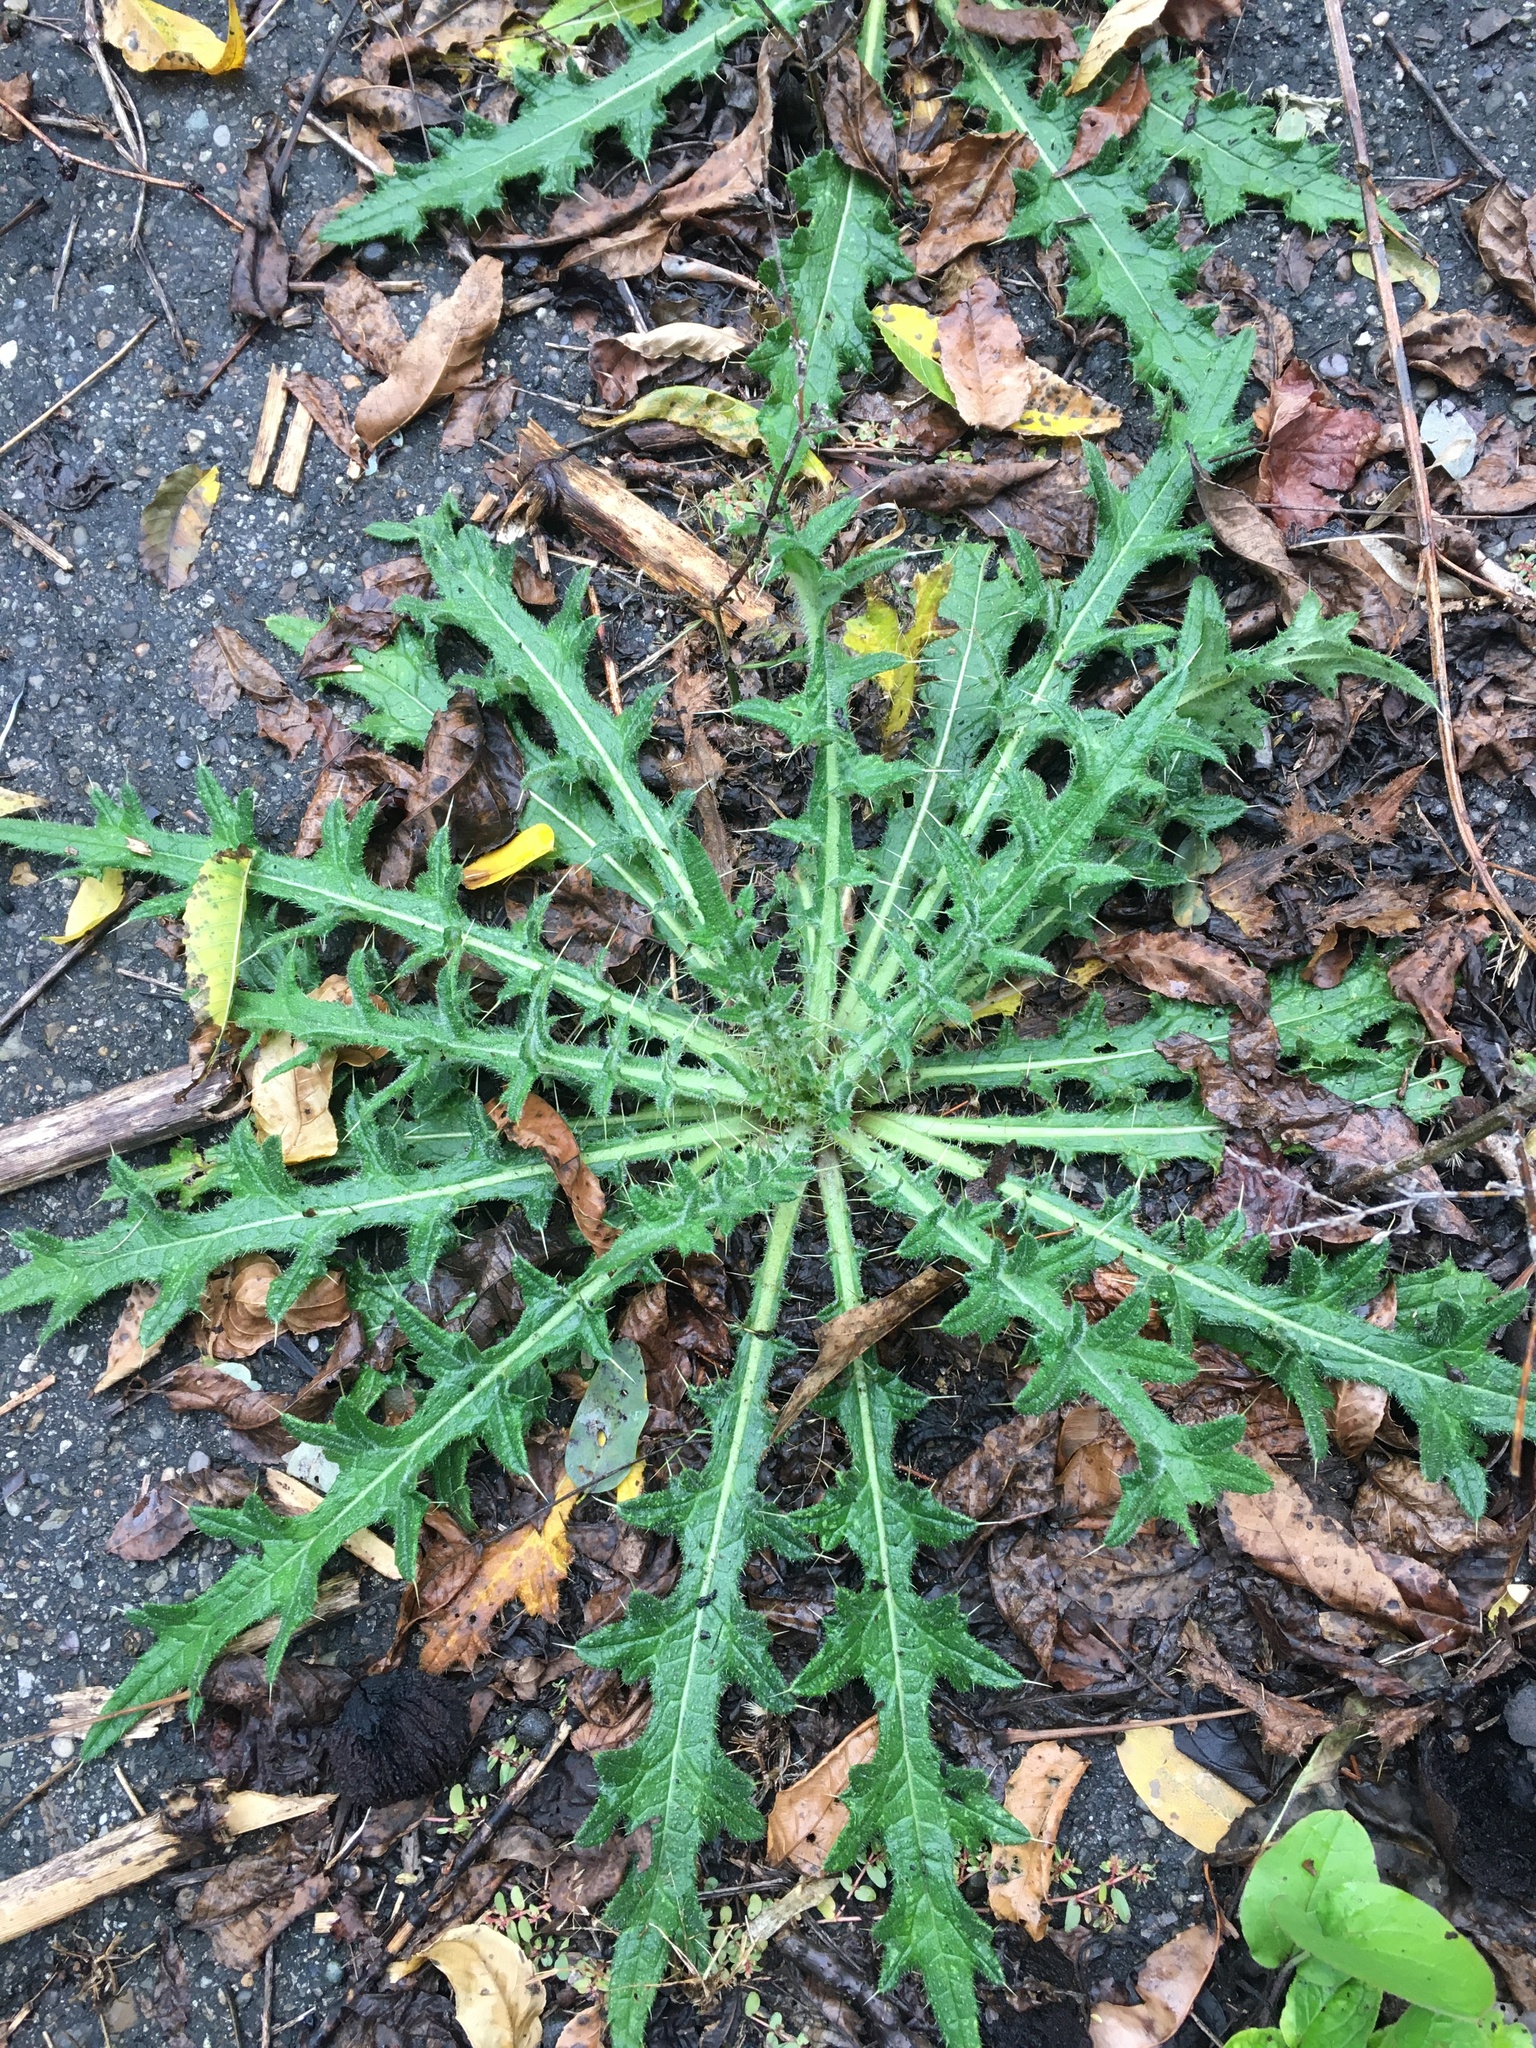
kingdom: Plantae
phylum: Tracheophyta
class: Magnoliopsida
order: Asterales
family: Asteraceae
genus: Cirsium
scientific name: Cirsium vulgare
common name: Bull thistle
